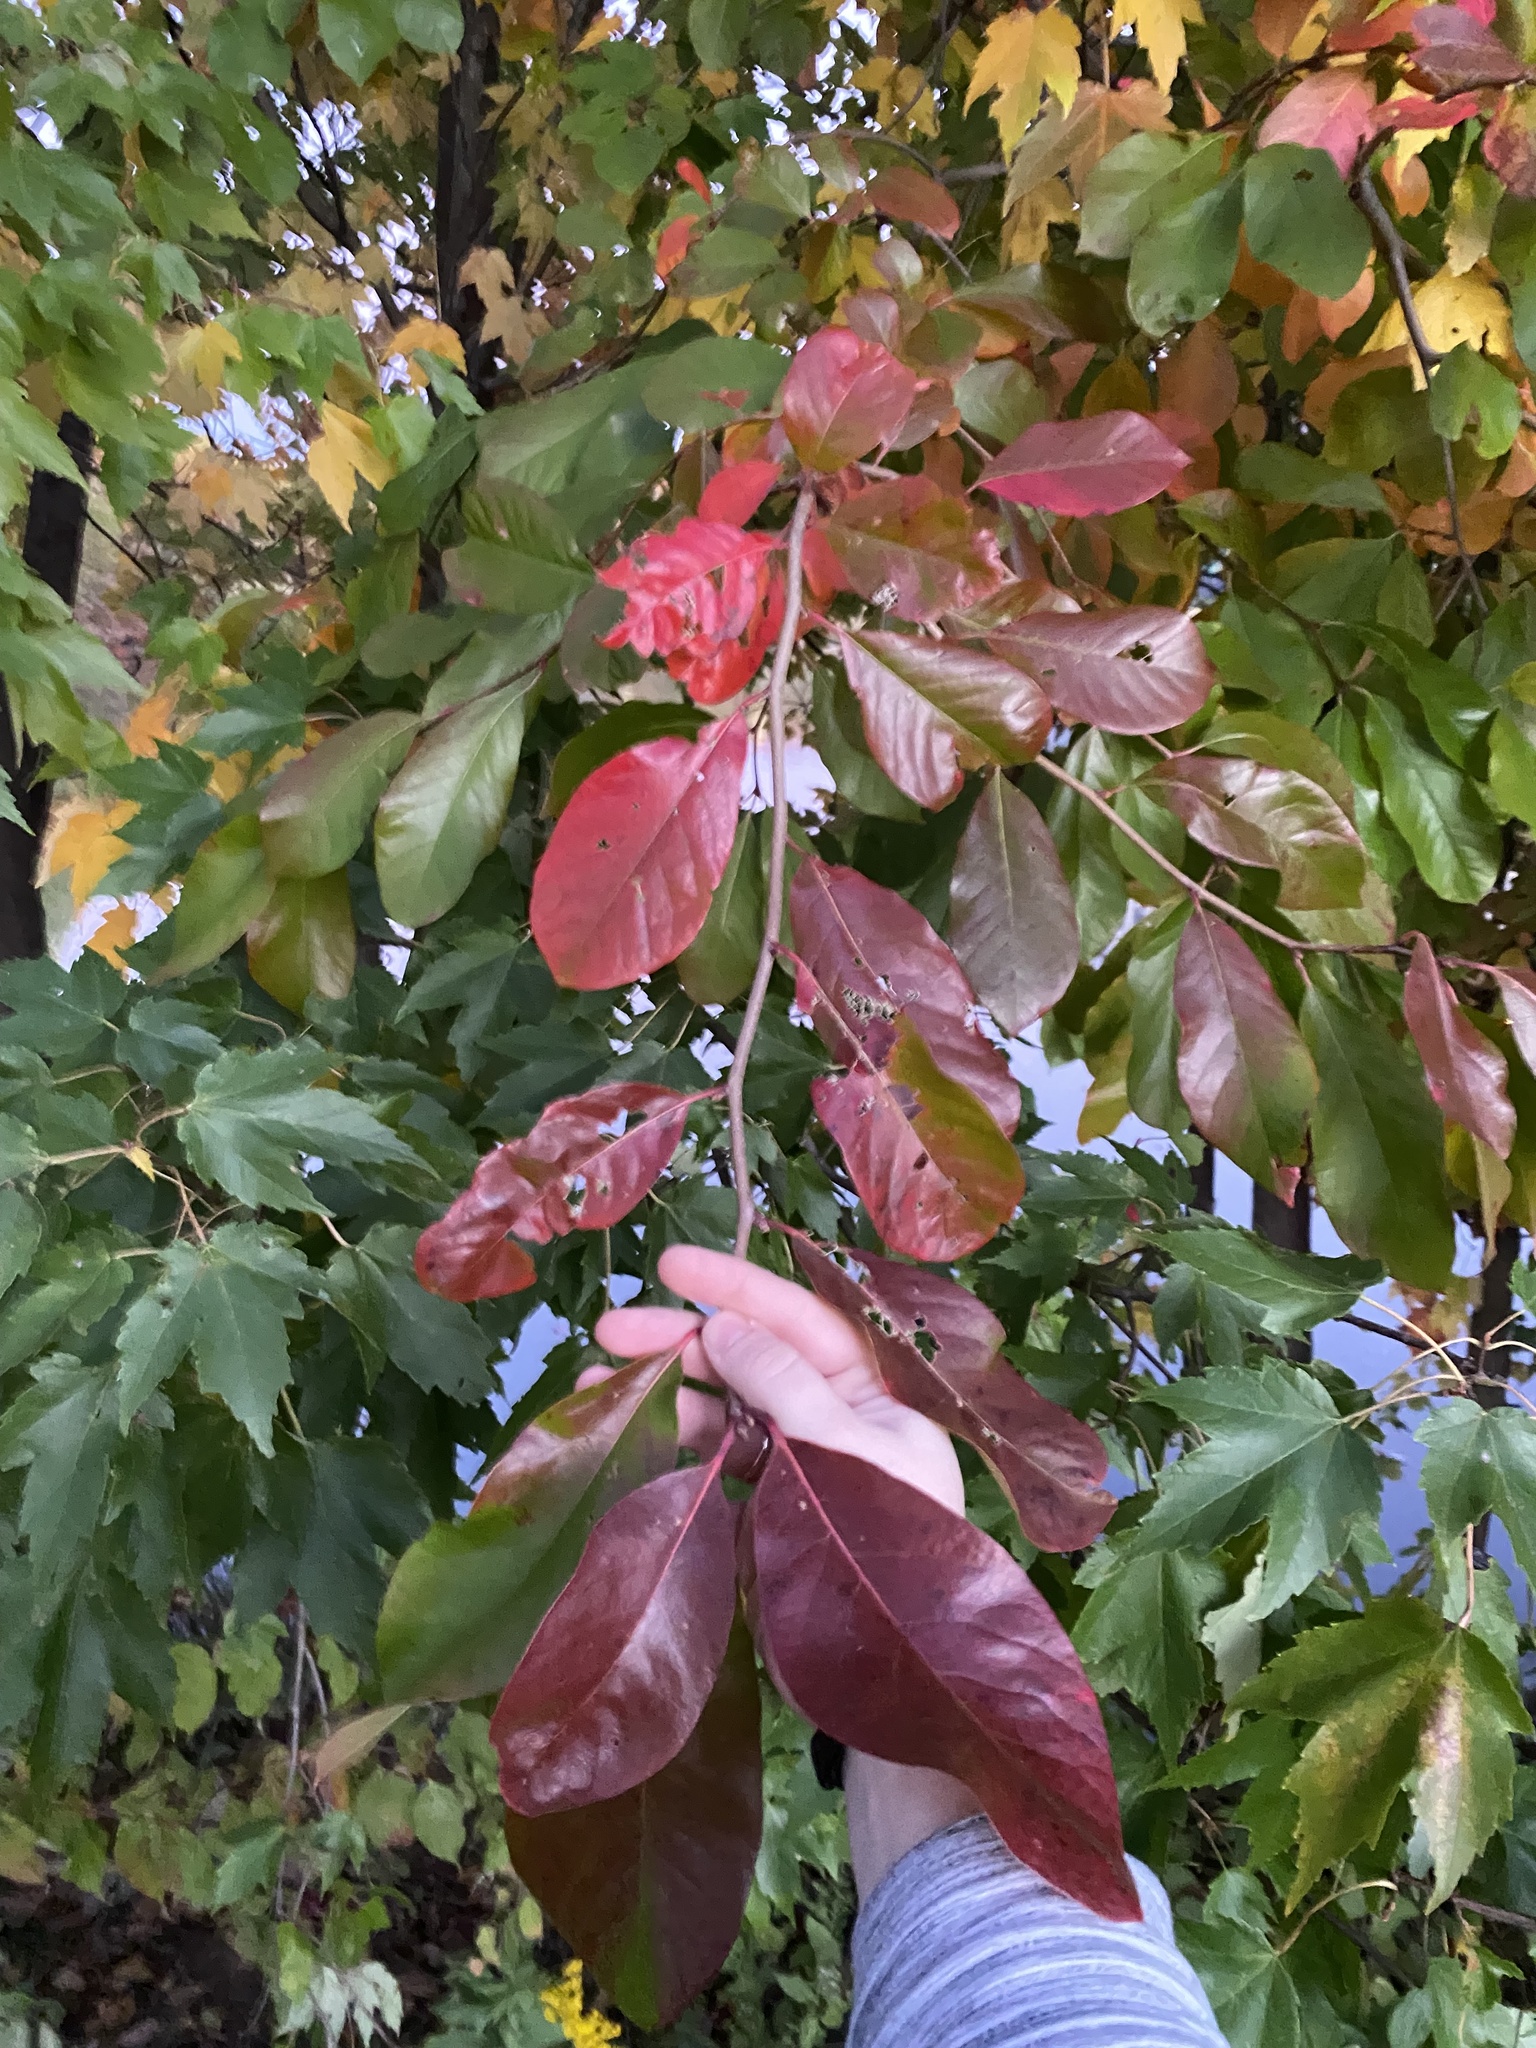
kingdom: Plantae
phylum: Tracheophyta
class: Magnoliopsida
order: Cornales
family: Nyssaceae
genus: Nyssa
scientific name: Nyssa sylvatica
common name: Black tupelo
